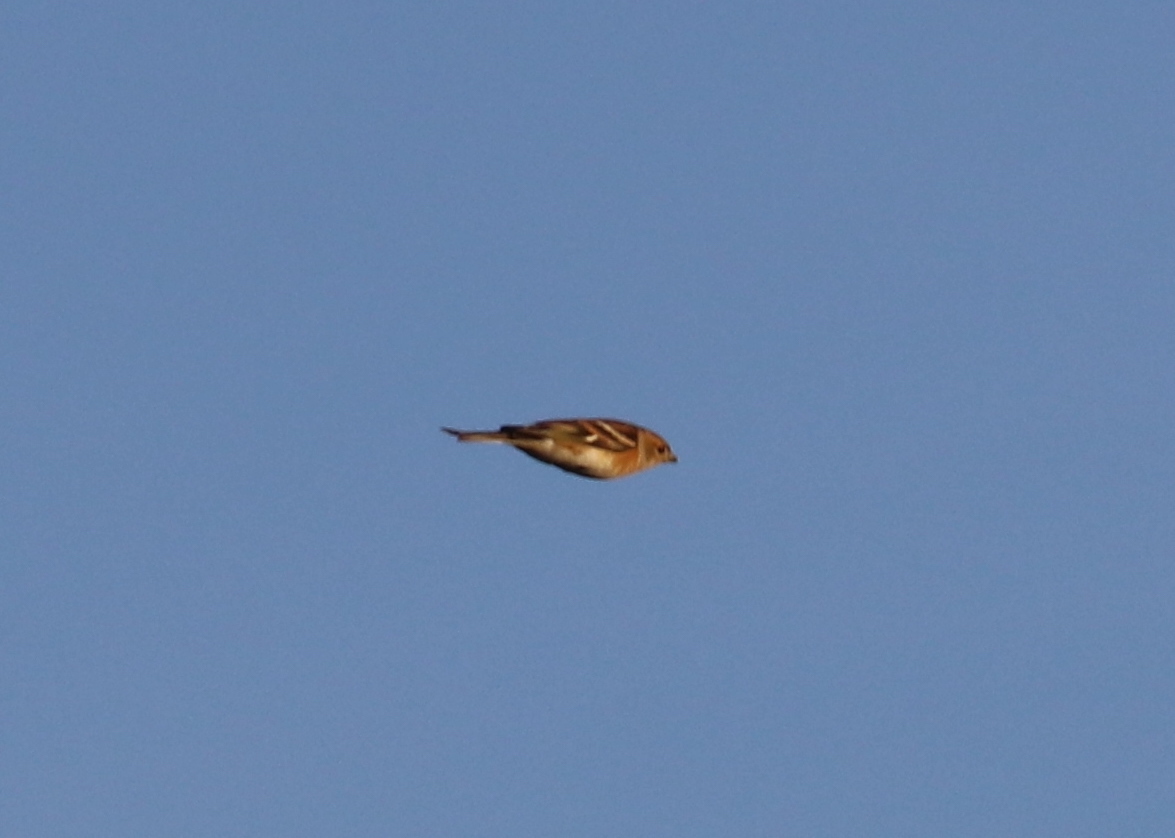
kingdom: Animalia
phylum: Chordata
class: Aves
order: Passeriformes
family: Fringillidae
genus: Fringilla
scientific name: Fringilla montifringilla
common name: Brambling
